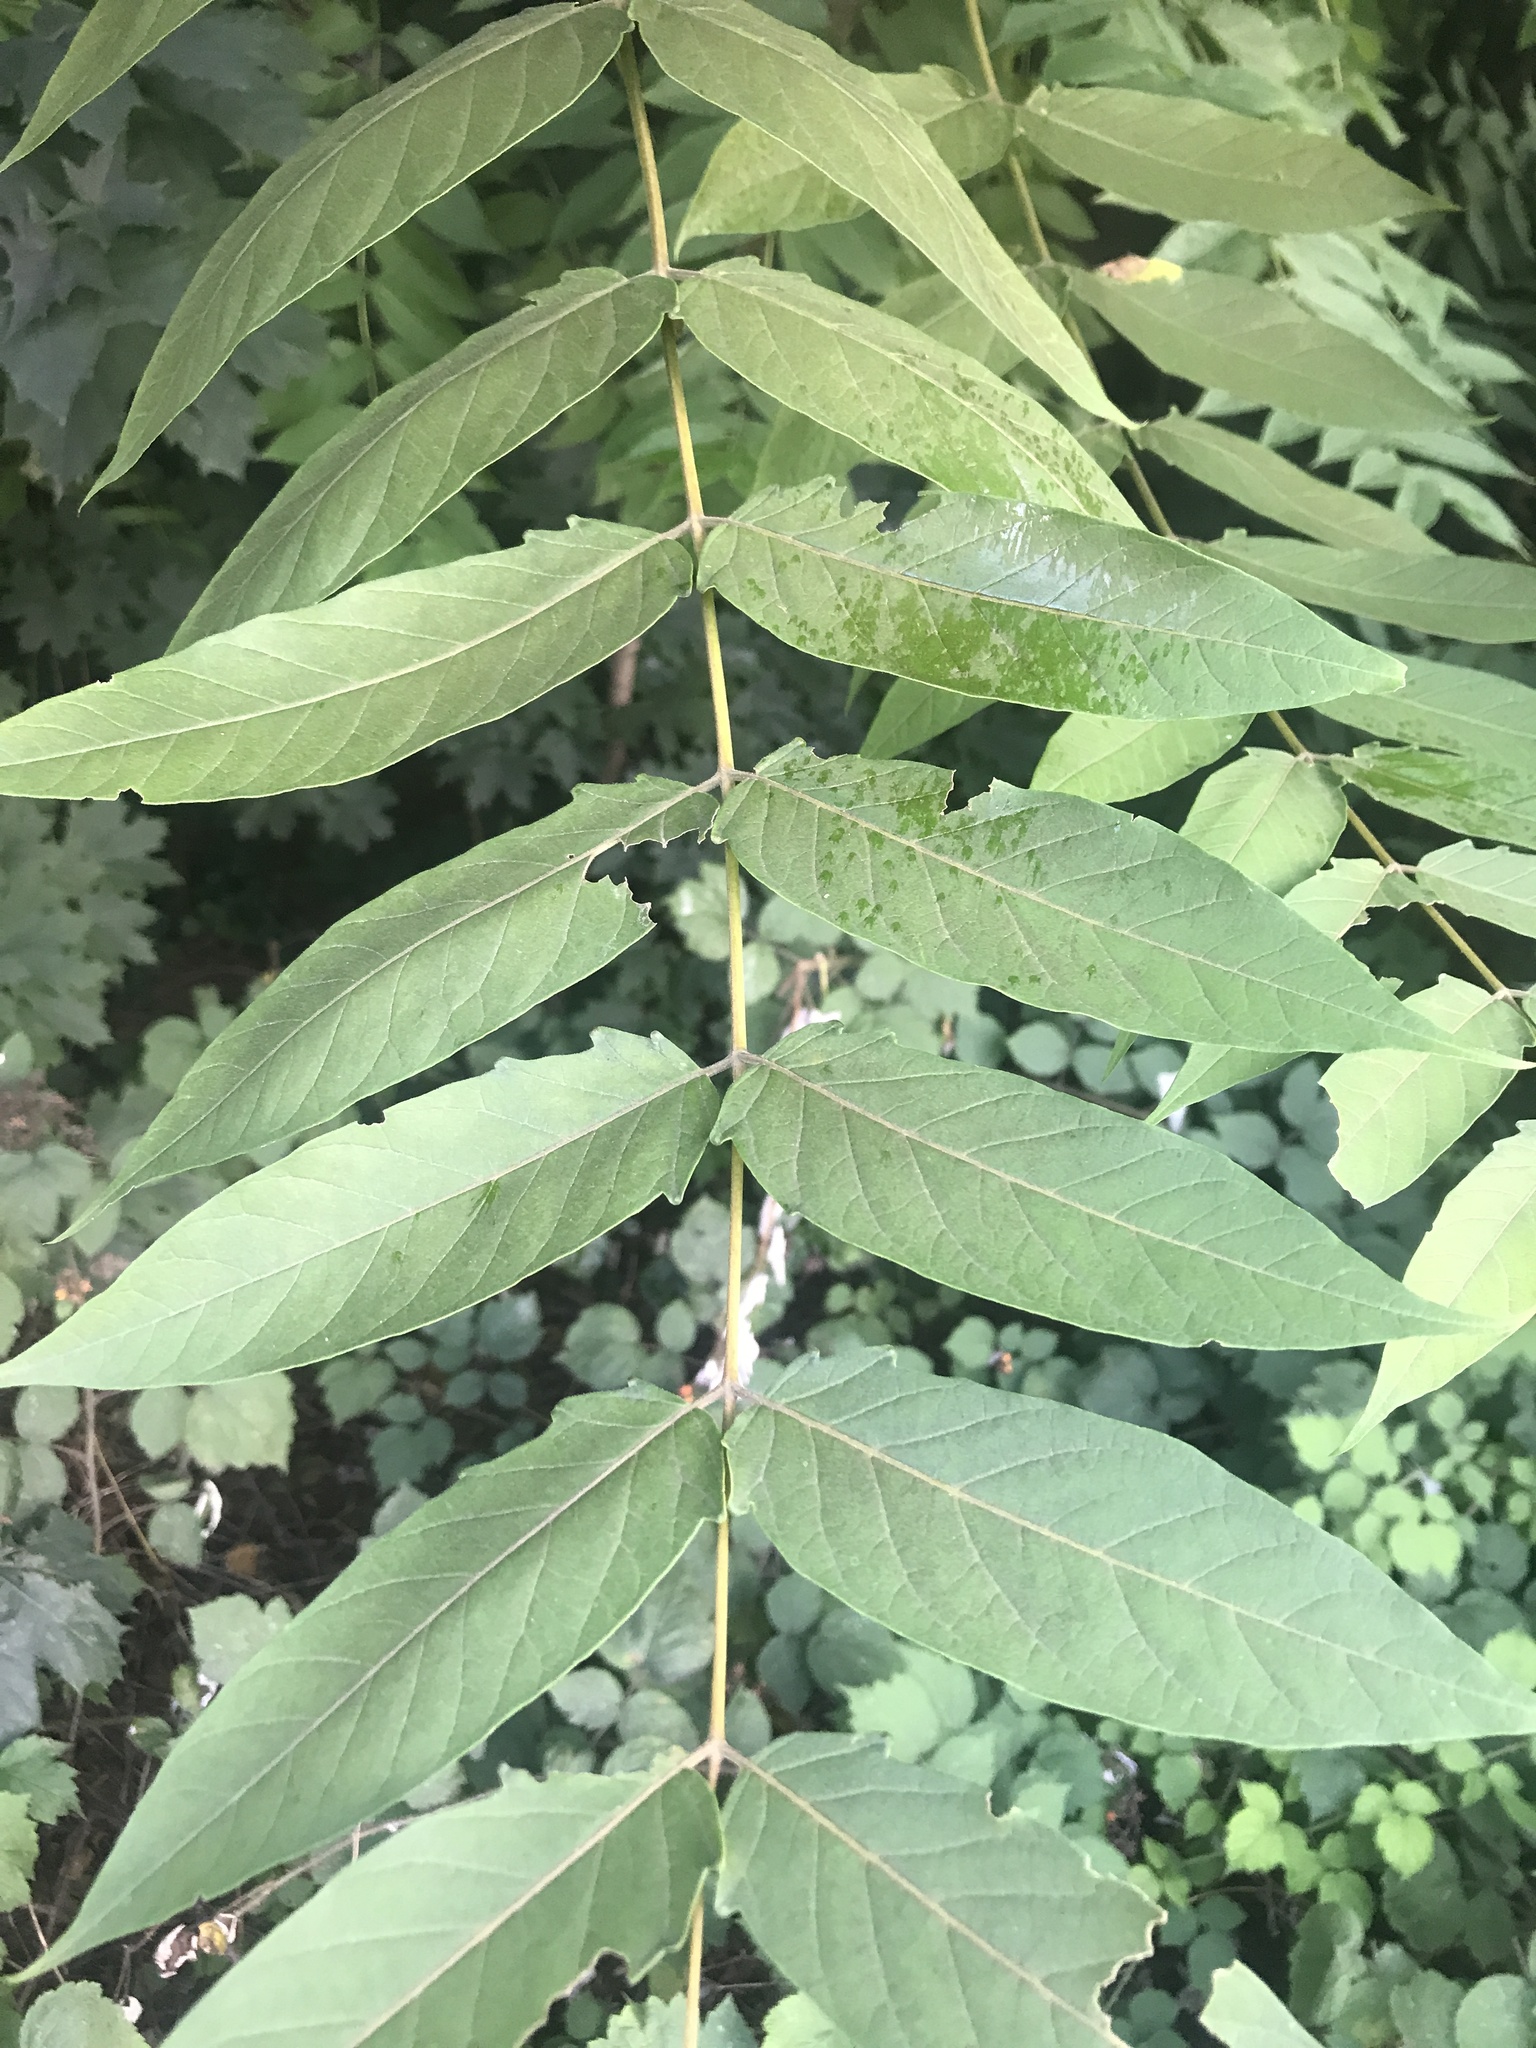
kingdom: Plantae
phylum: Tracheophyta
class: Magnoliopsida
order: Sapindales
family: Simaroubaceae
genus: Ailanthus
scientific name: Ailanthus altissima
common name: Tree-of-heaven
